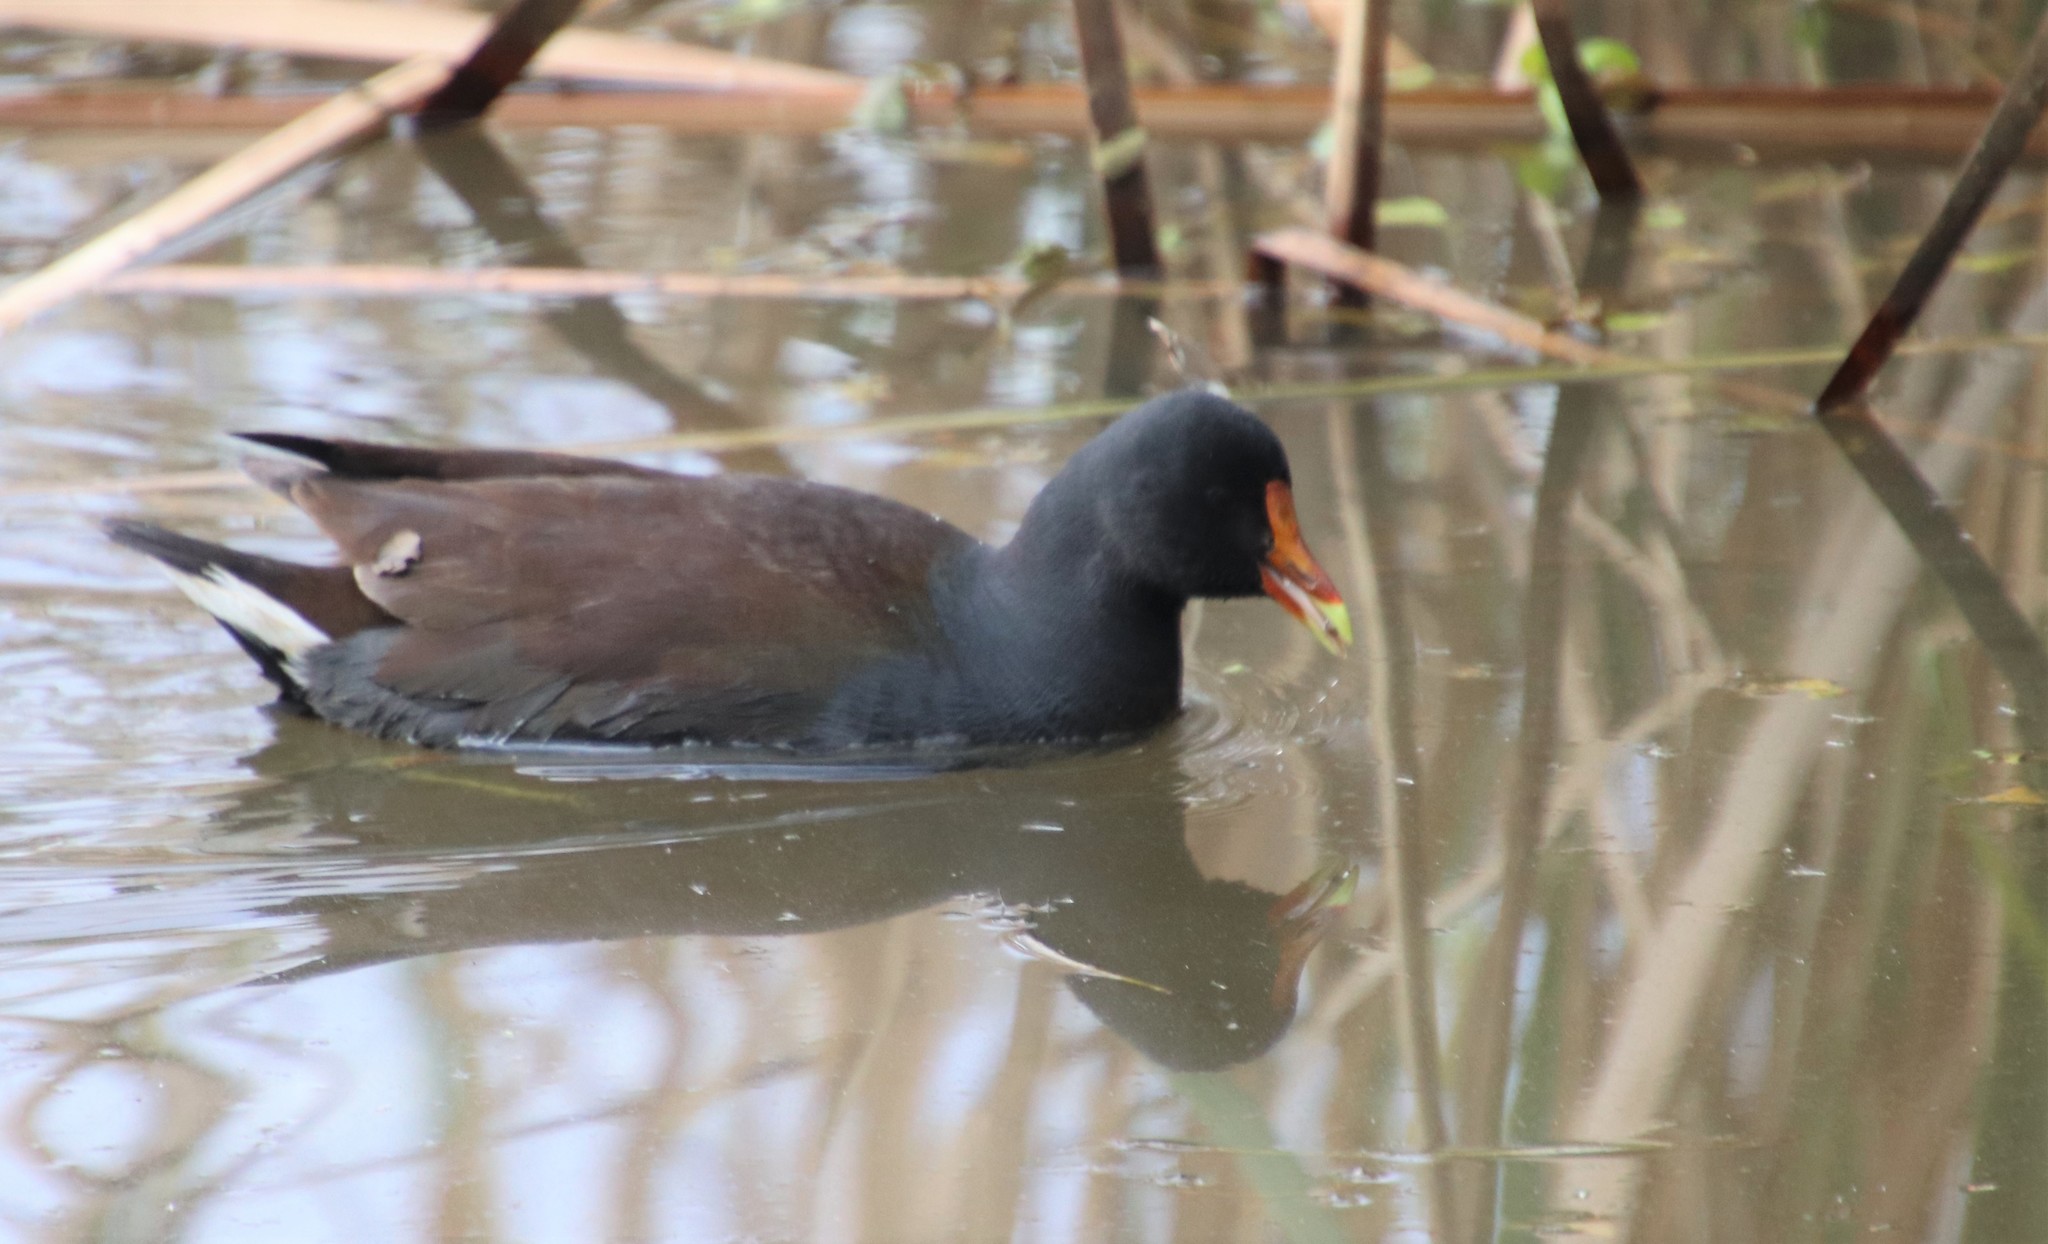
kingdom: Animalia
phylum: Chordata
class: Aves
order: Gruiformes
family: Rallidae
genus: Gallinula
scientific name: Gallinula chloropus
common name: Common moorhen
